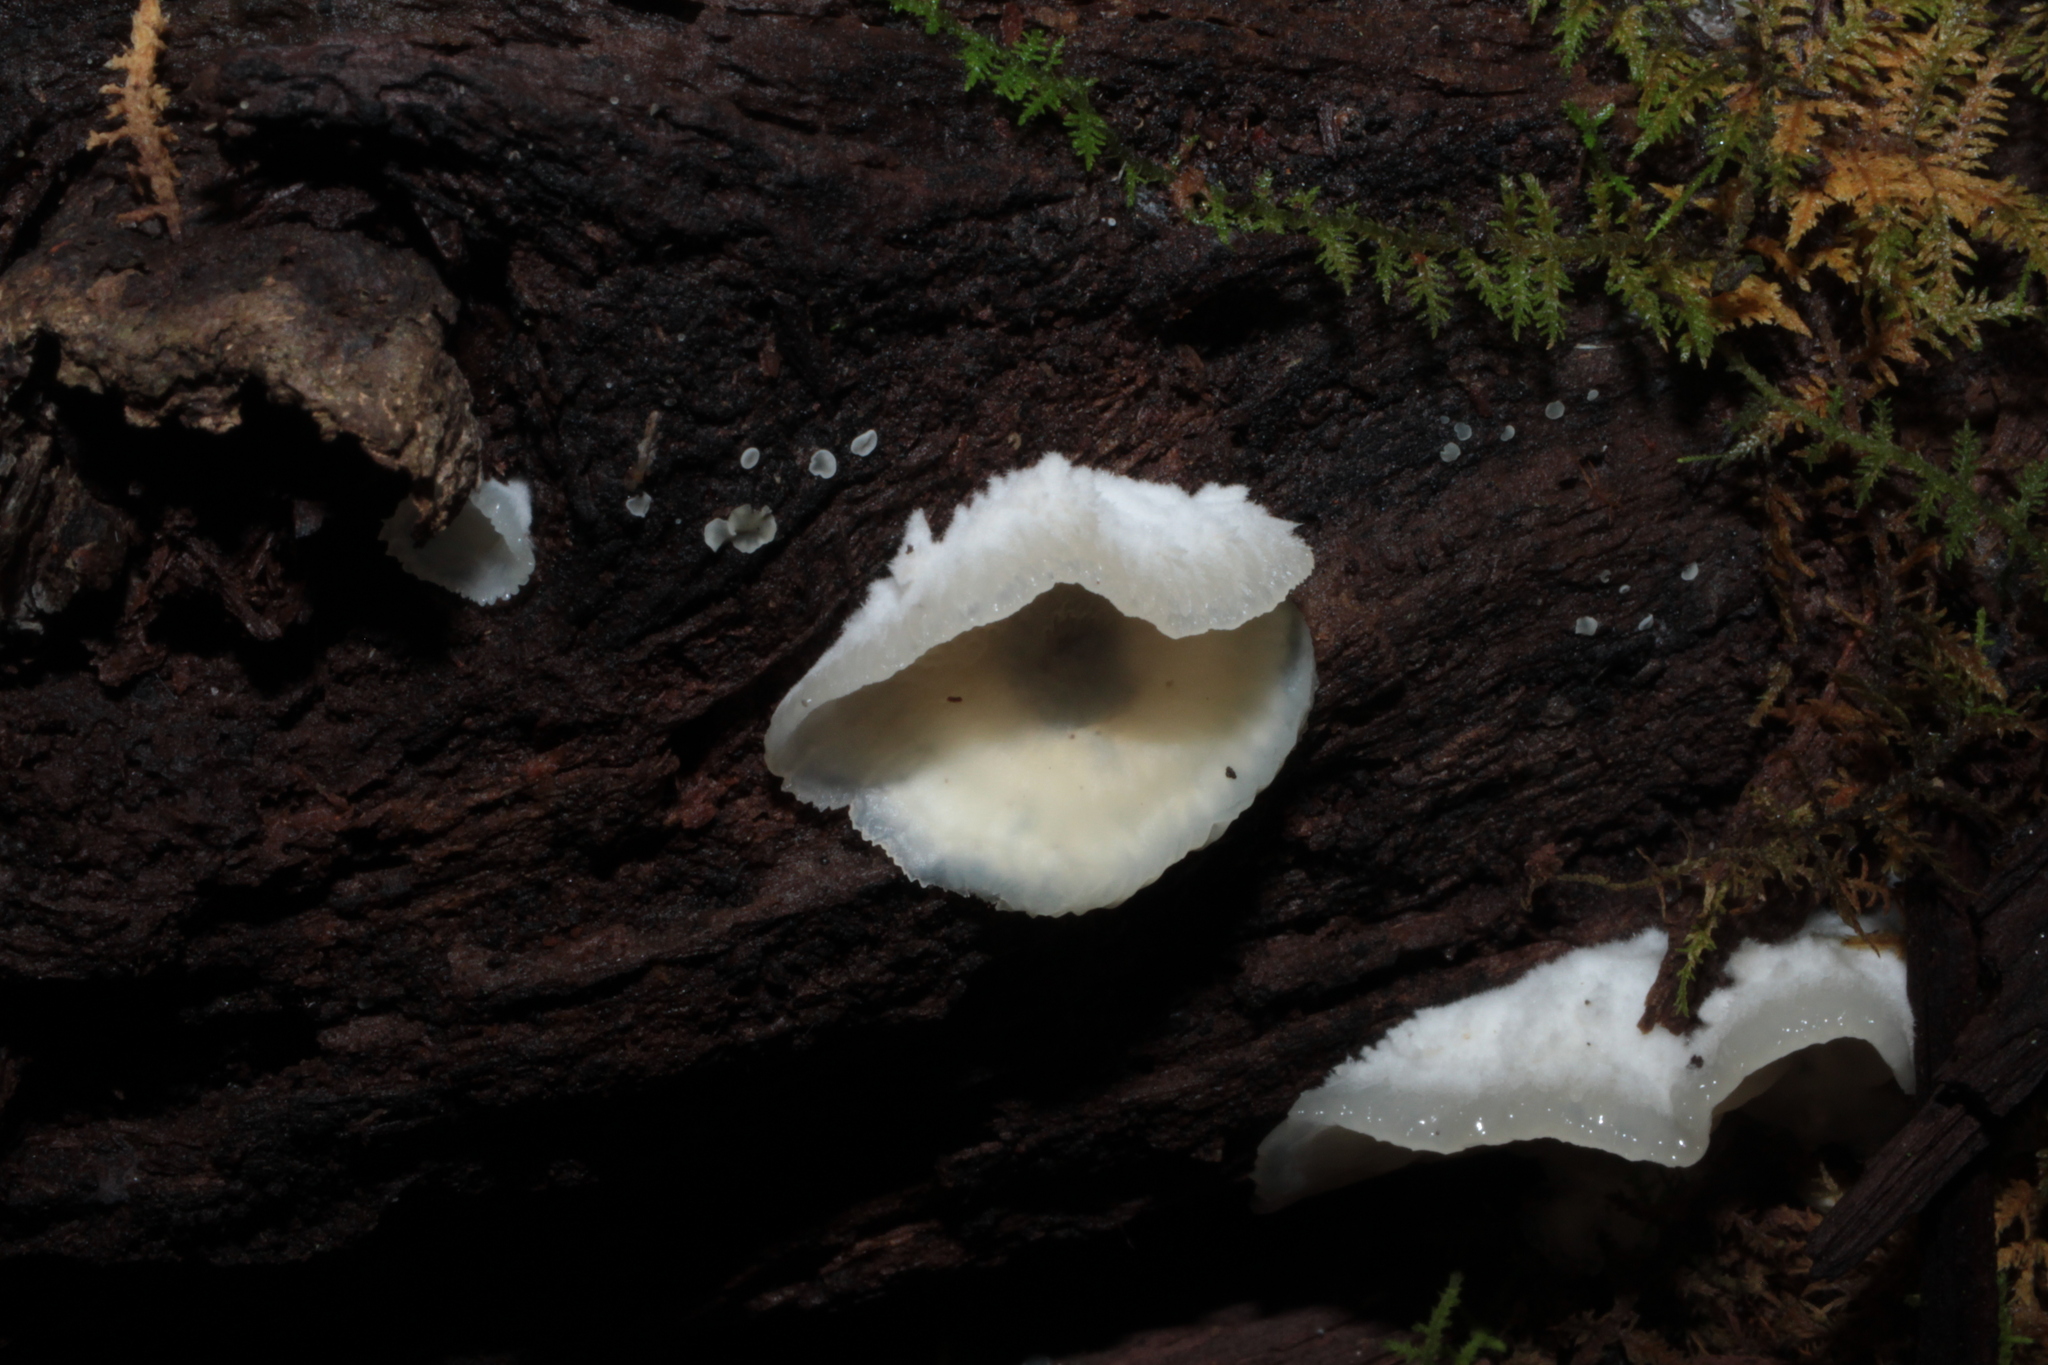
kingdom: Fungi
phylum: Basidiomycota
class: Agaricomycetes
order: Polyporales
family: Meruliaceae
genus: Phlebia
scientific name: Phlebia tremellosa
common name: Jelly rot
